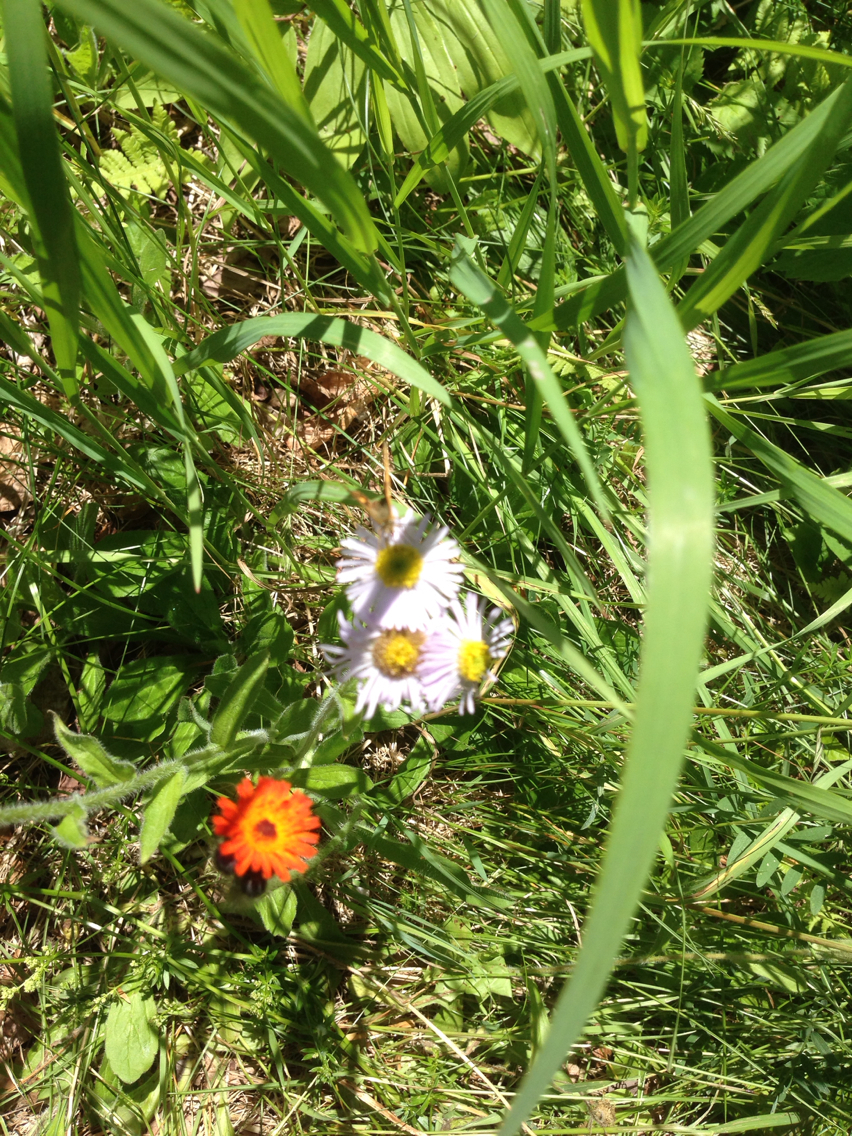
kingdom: Plantae
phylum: Tracheophyta
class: Magnoliopsida
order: Asterales
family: Asteraceae
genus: Pilosella
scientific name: Pilosella aurantiaca
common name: Fox-and-cubs
